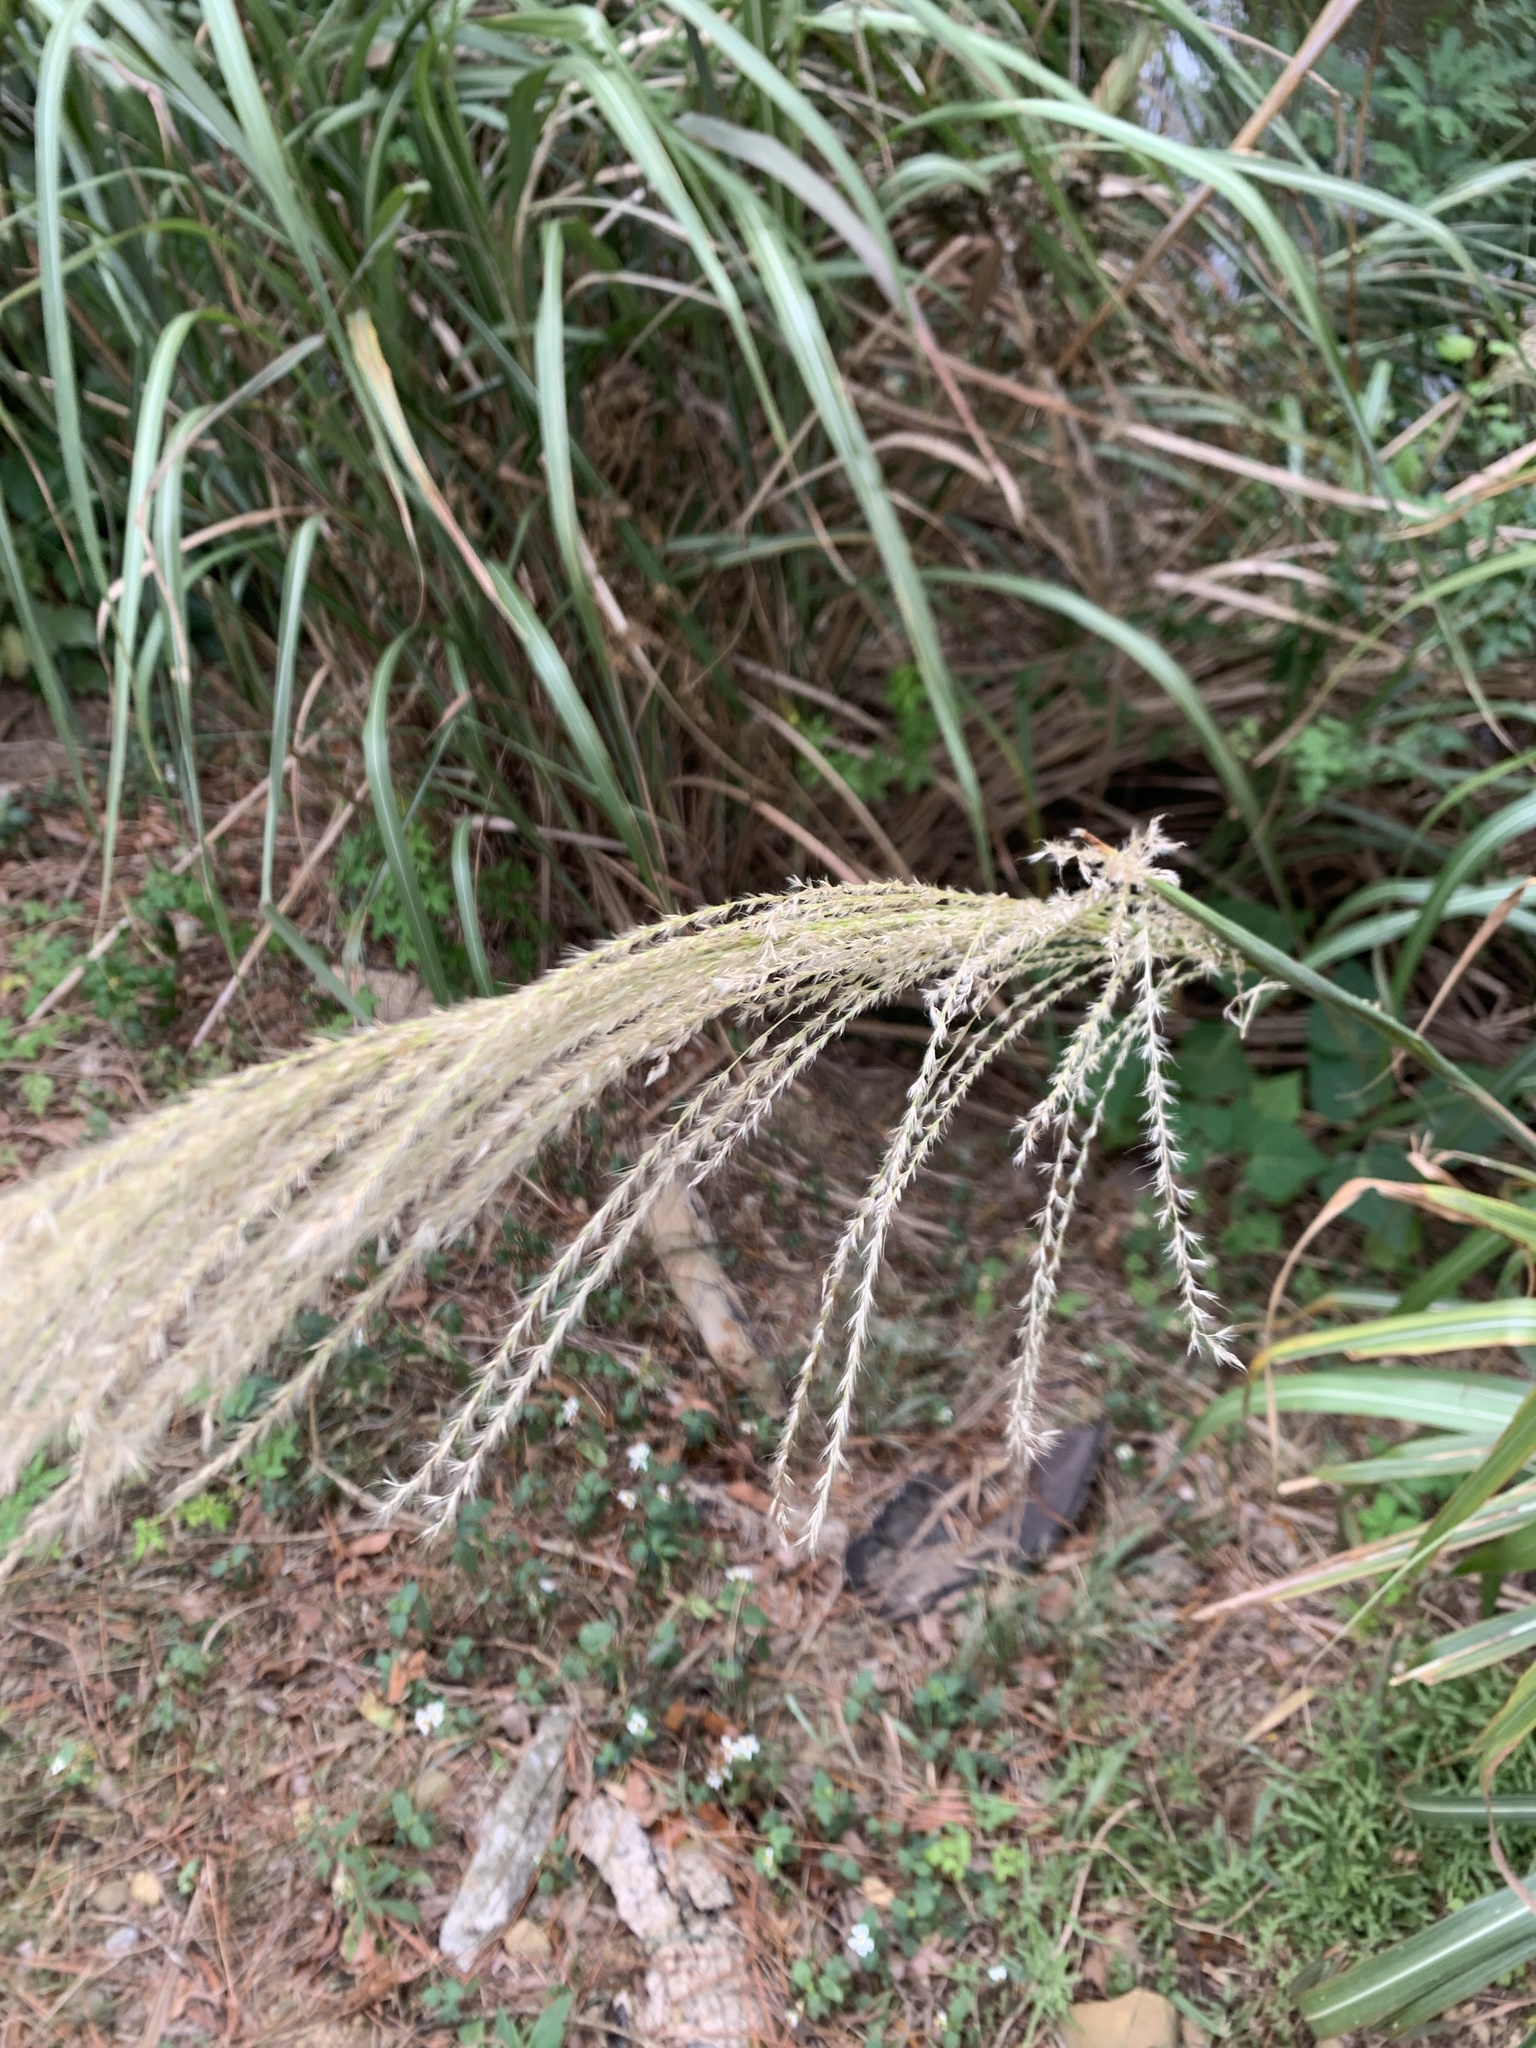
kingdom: Plantae
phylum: Tracheophyta
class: Liliopsida
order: Poales
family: Poaceae
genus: Miscanthus
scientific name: Miscanthus sinensis
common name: Chinese silvergrass
